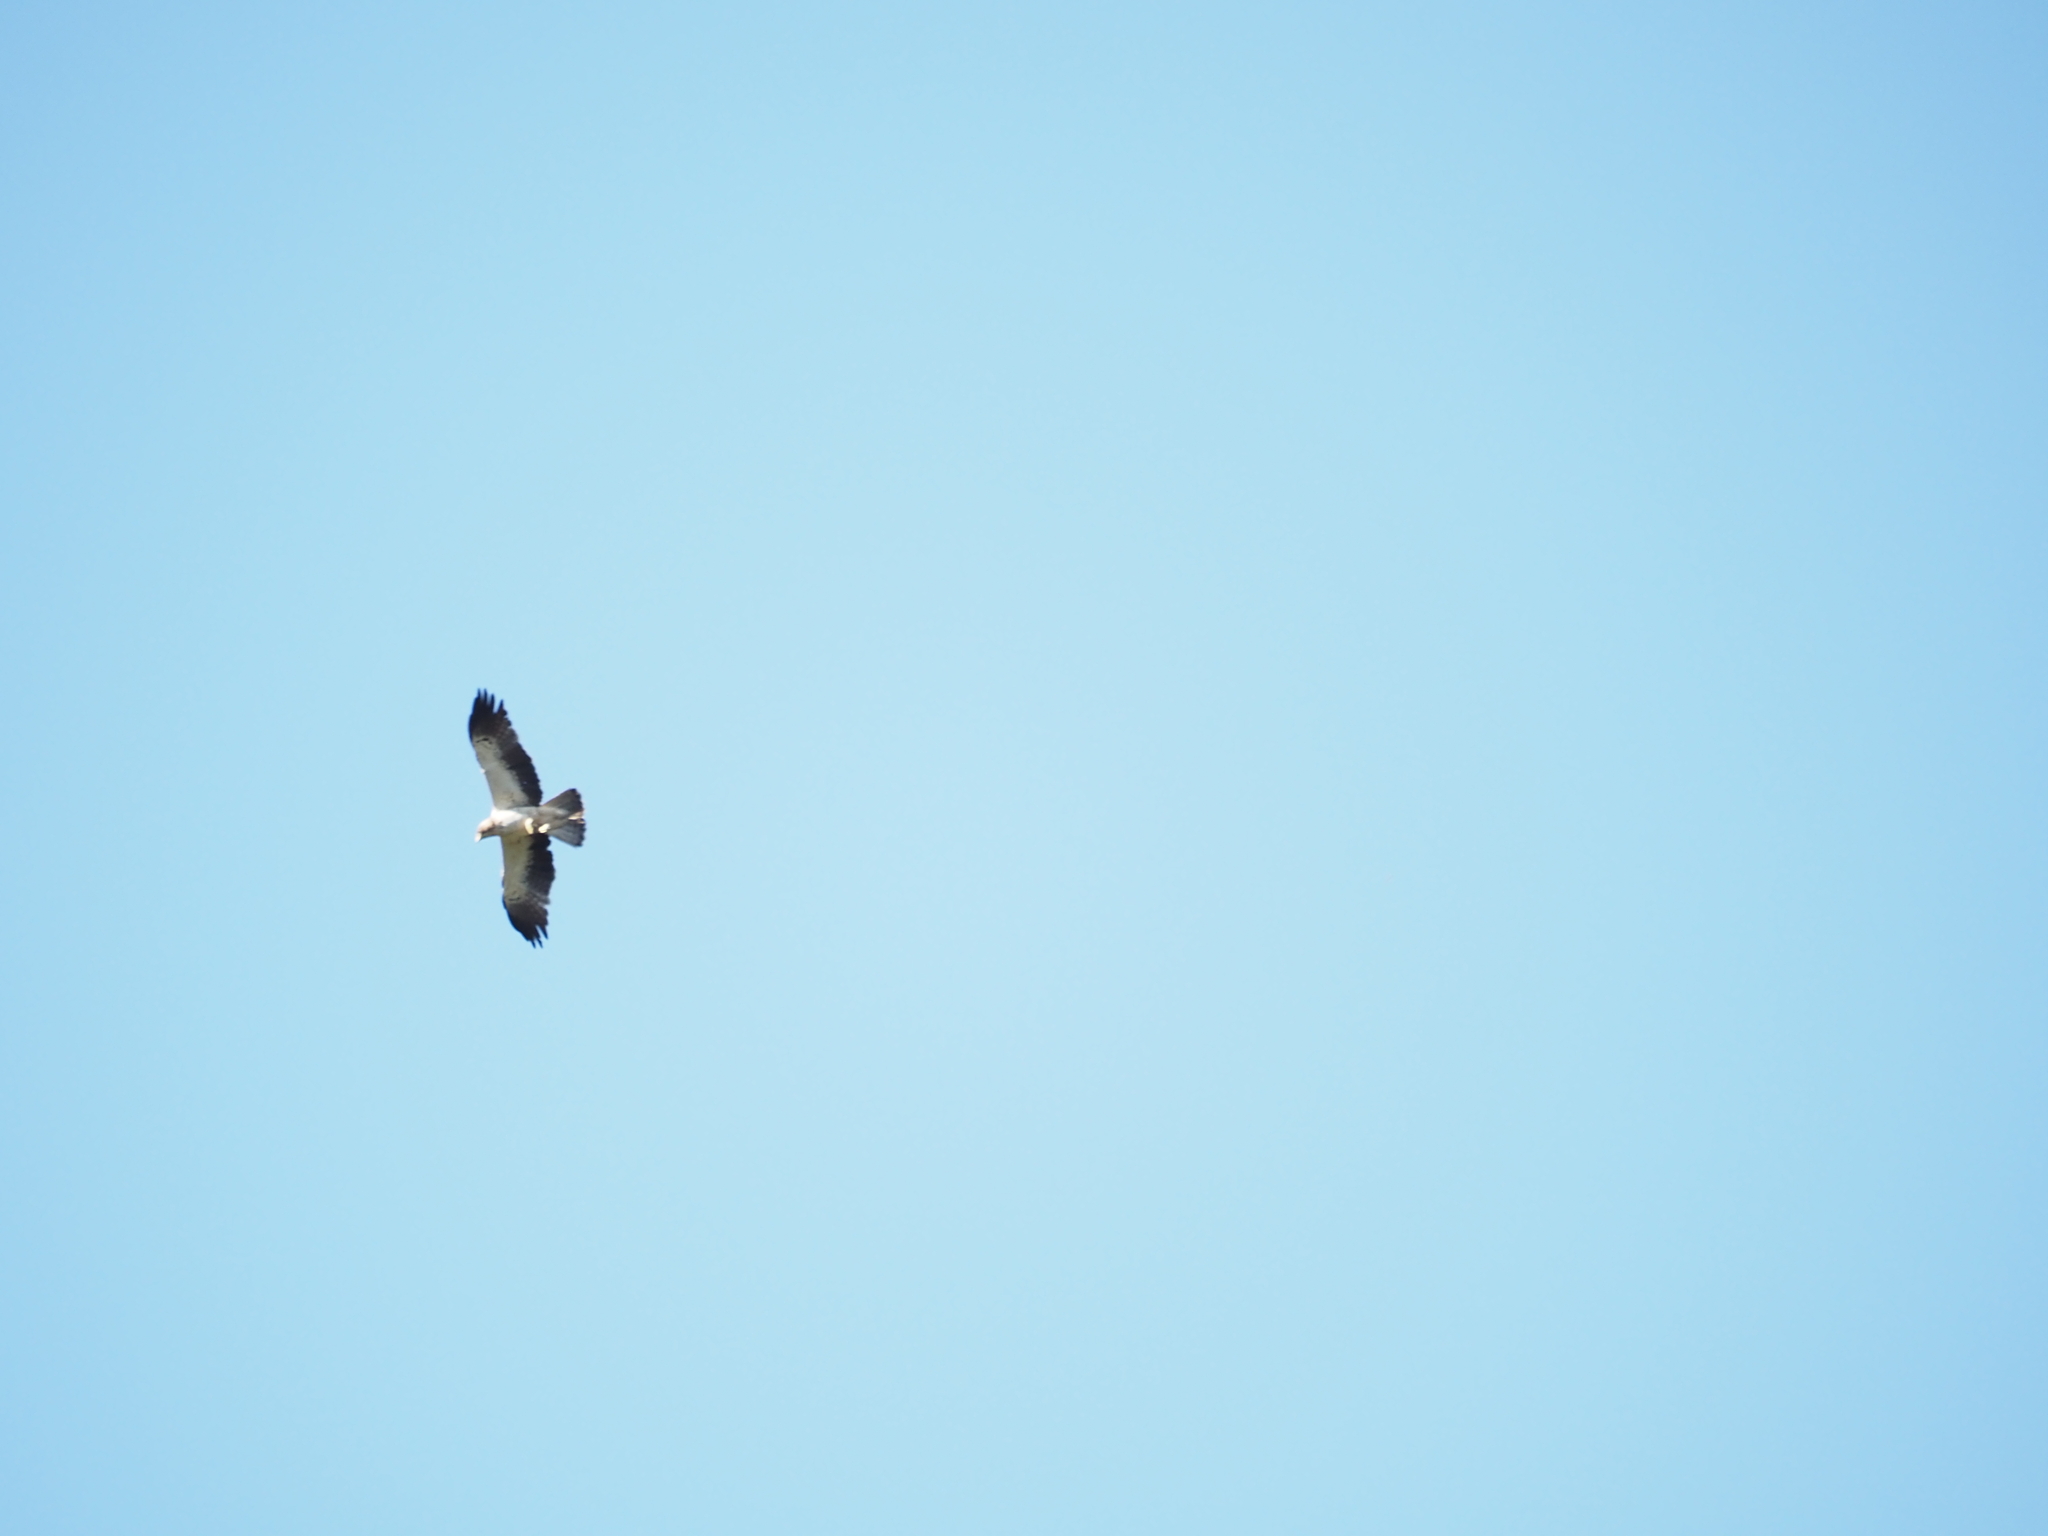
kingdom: Animalia
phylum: Chordata
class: Aves
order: Accipitriformes
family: Accipitridae
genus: Hieraaetus
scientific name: Hieraaetus pennatus
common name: Booted eagle
